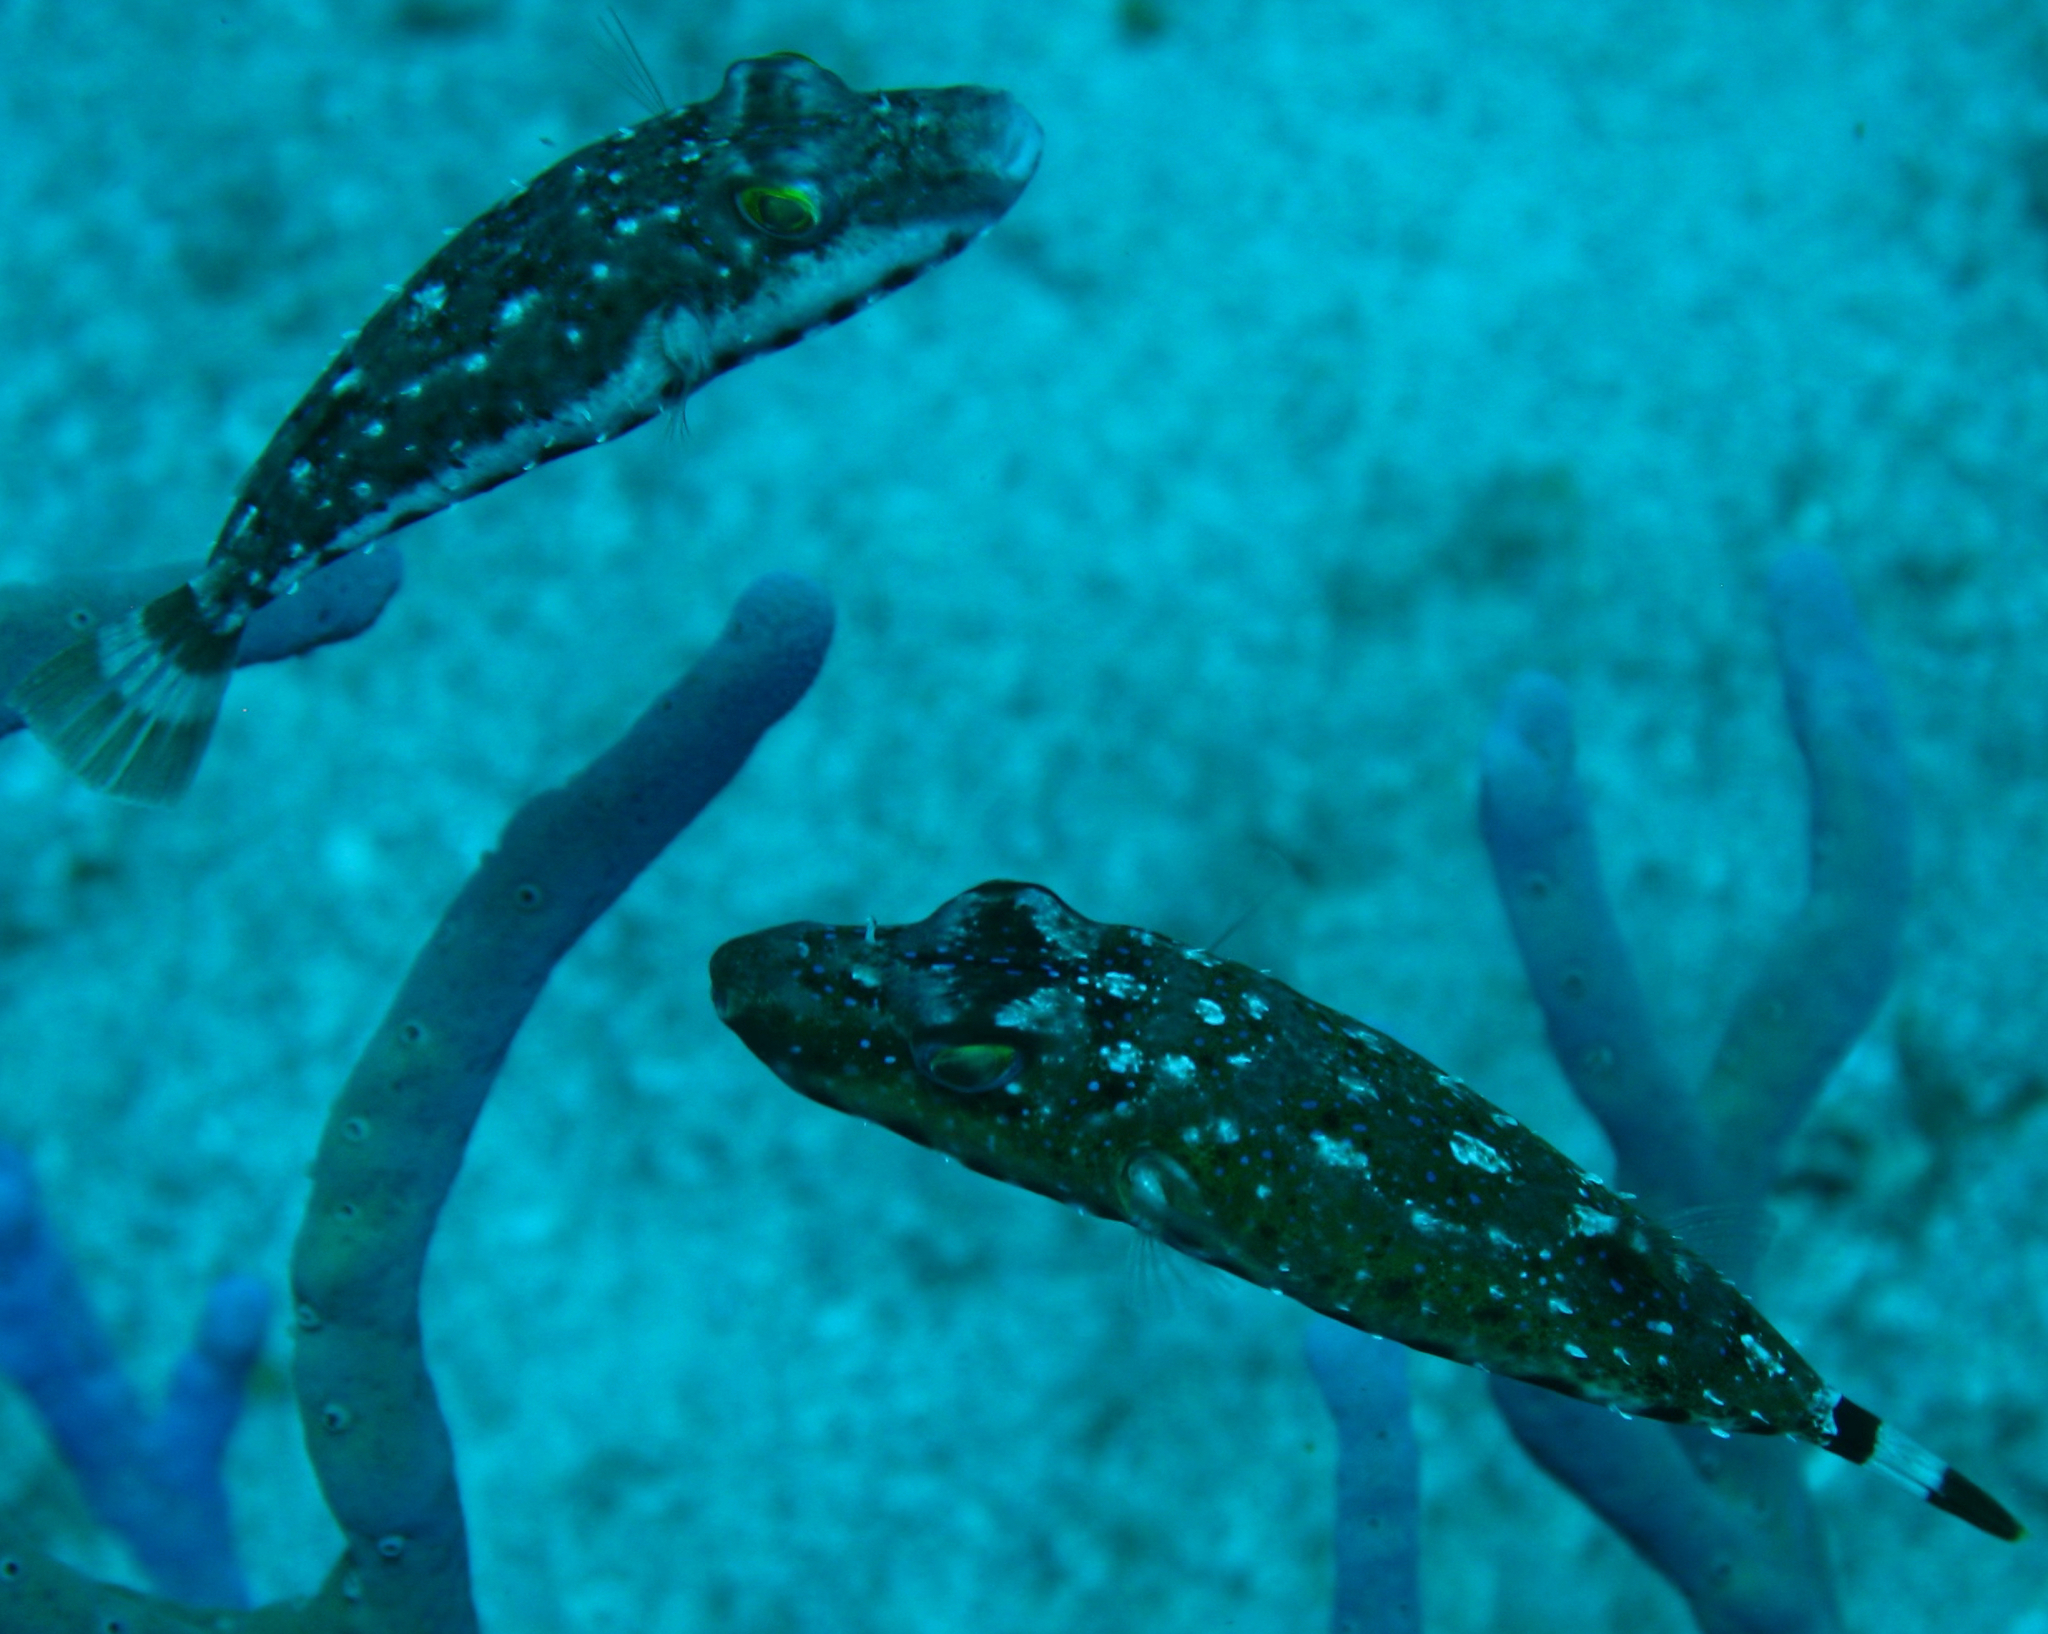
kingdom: Animalia
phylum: Chordata
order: Tetraodontiformes
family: Tetraodontidae
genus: Sphoeroides
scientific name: Sphoeroides spengleri
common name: Bandtail puffer
